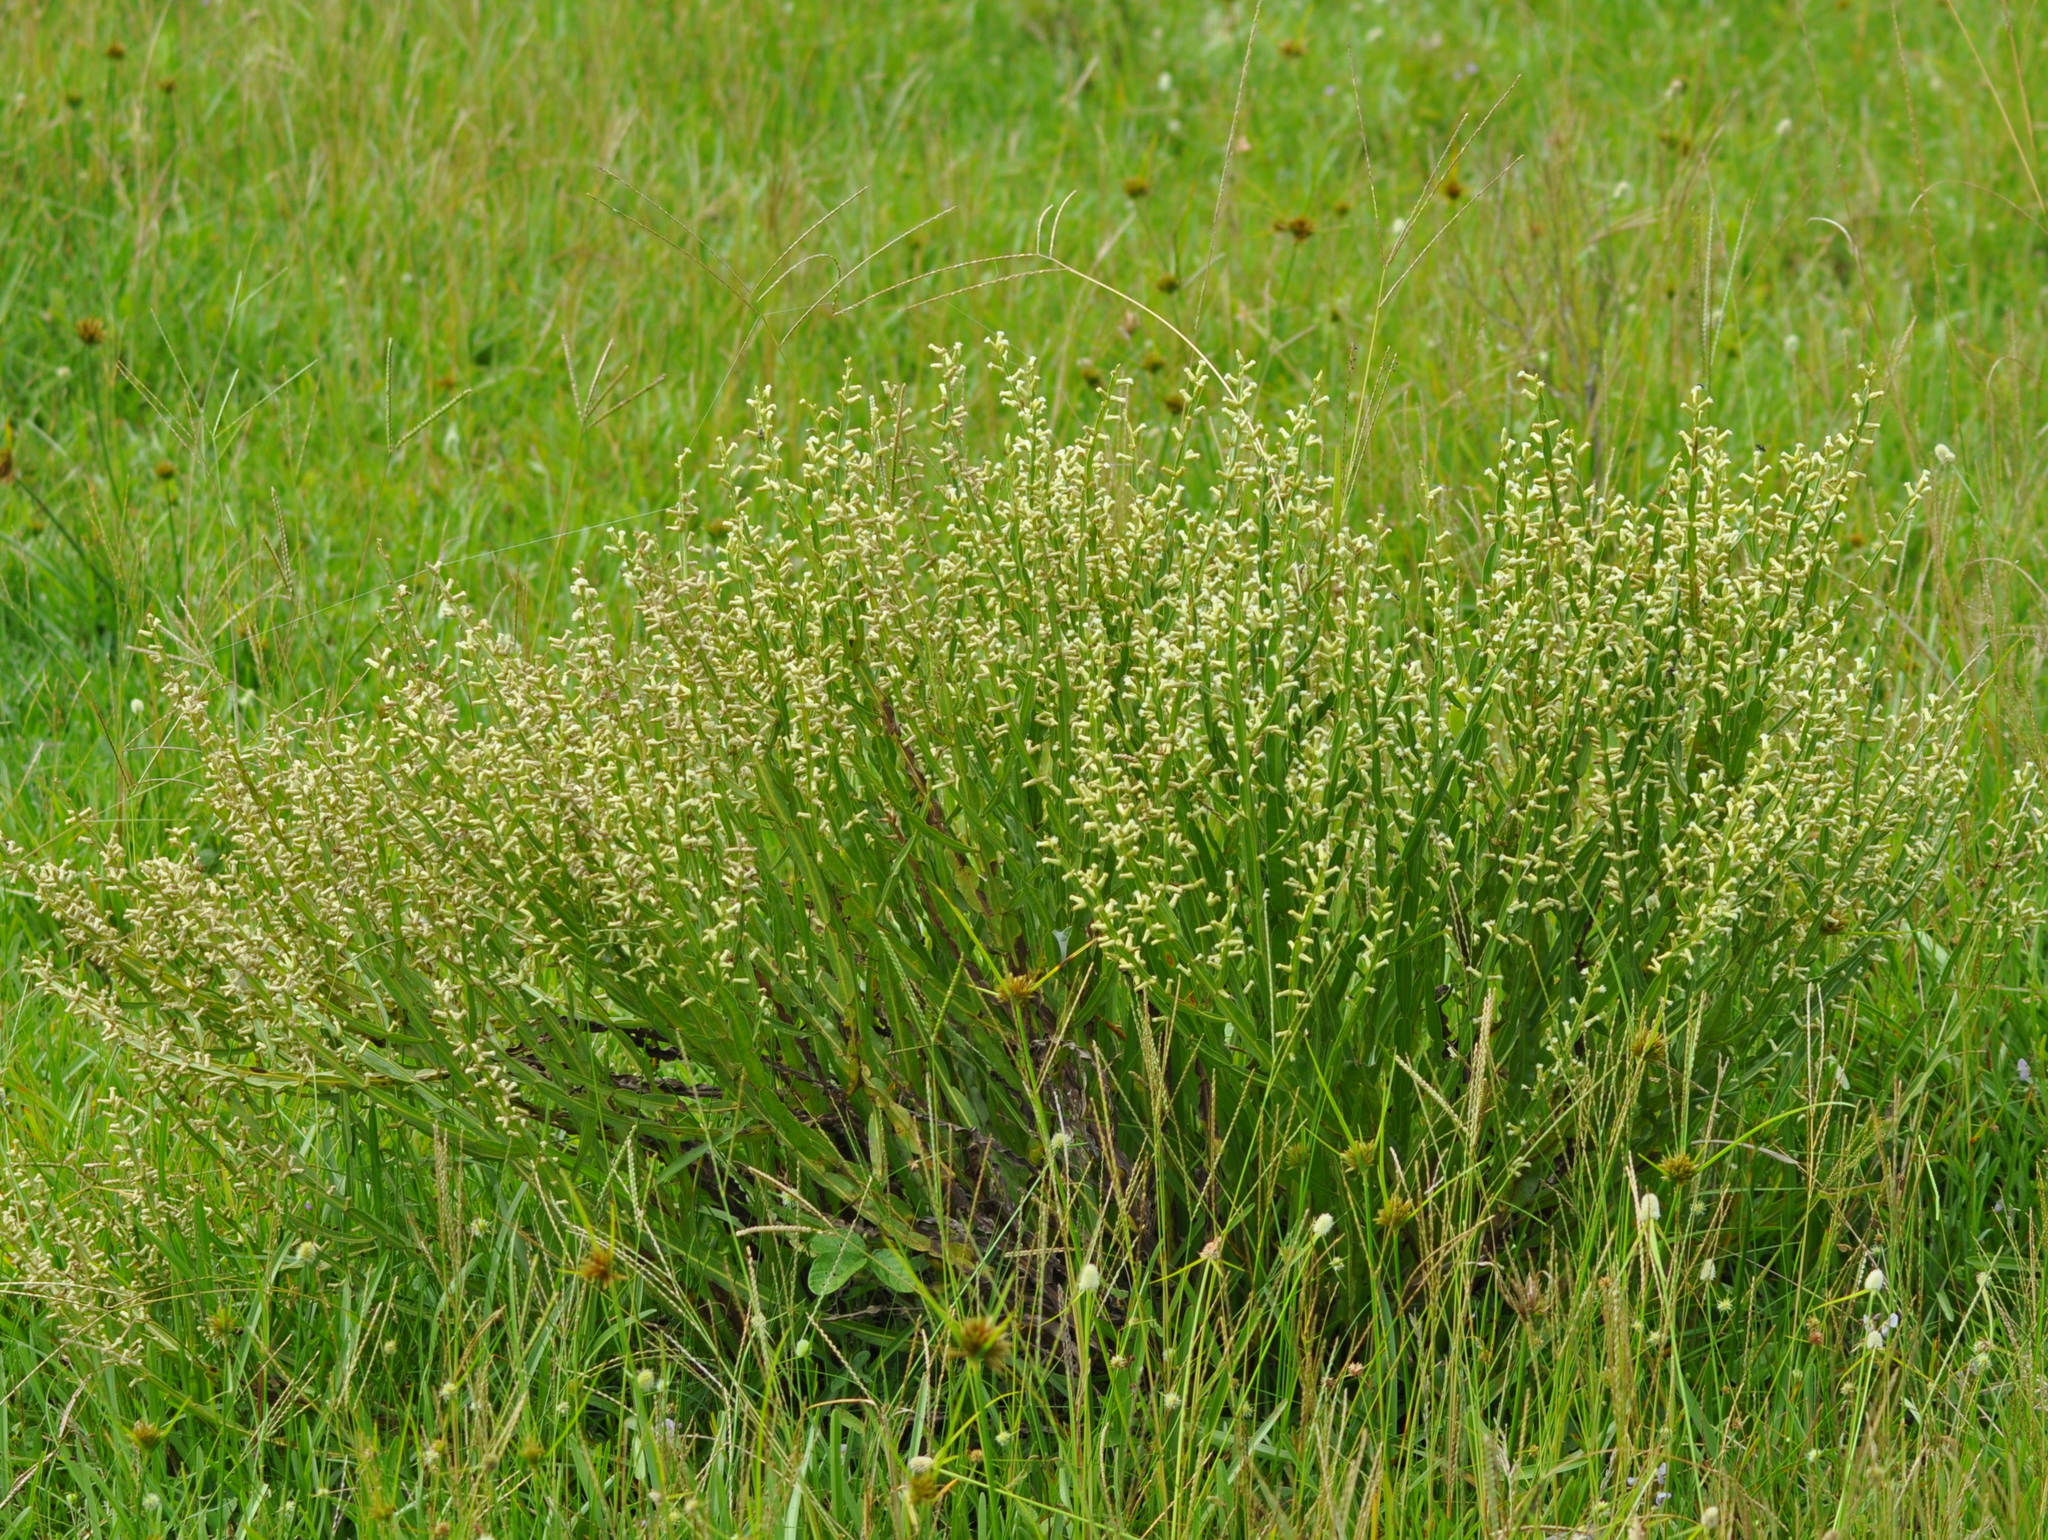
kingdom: Plantae
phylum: Tracheophyta
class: Magnoliopsida
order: Asterales
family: Asteraceae
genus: Baccharis
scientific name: Baccharis trimera
